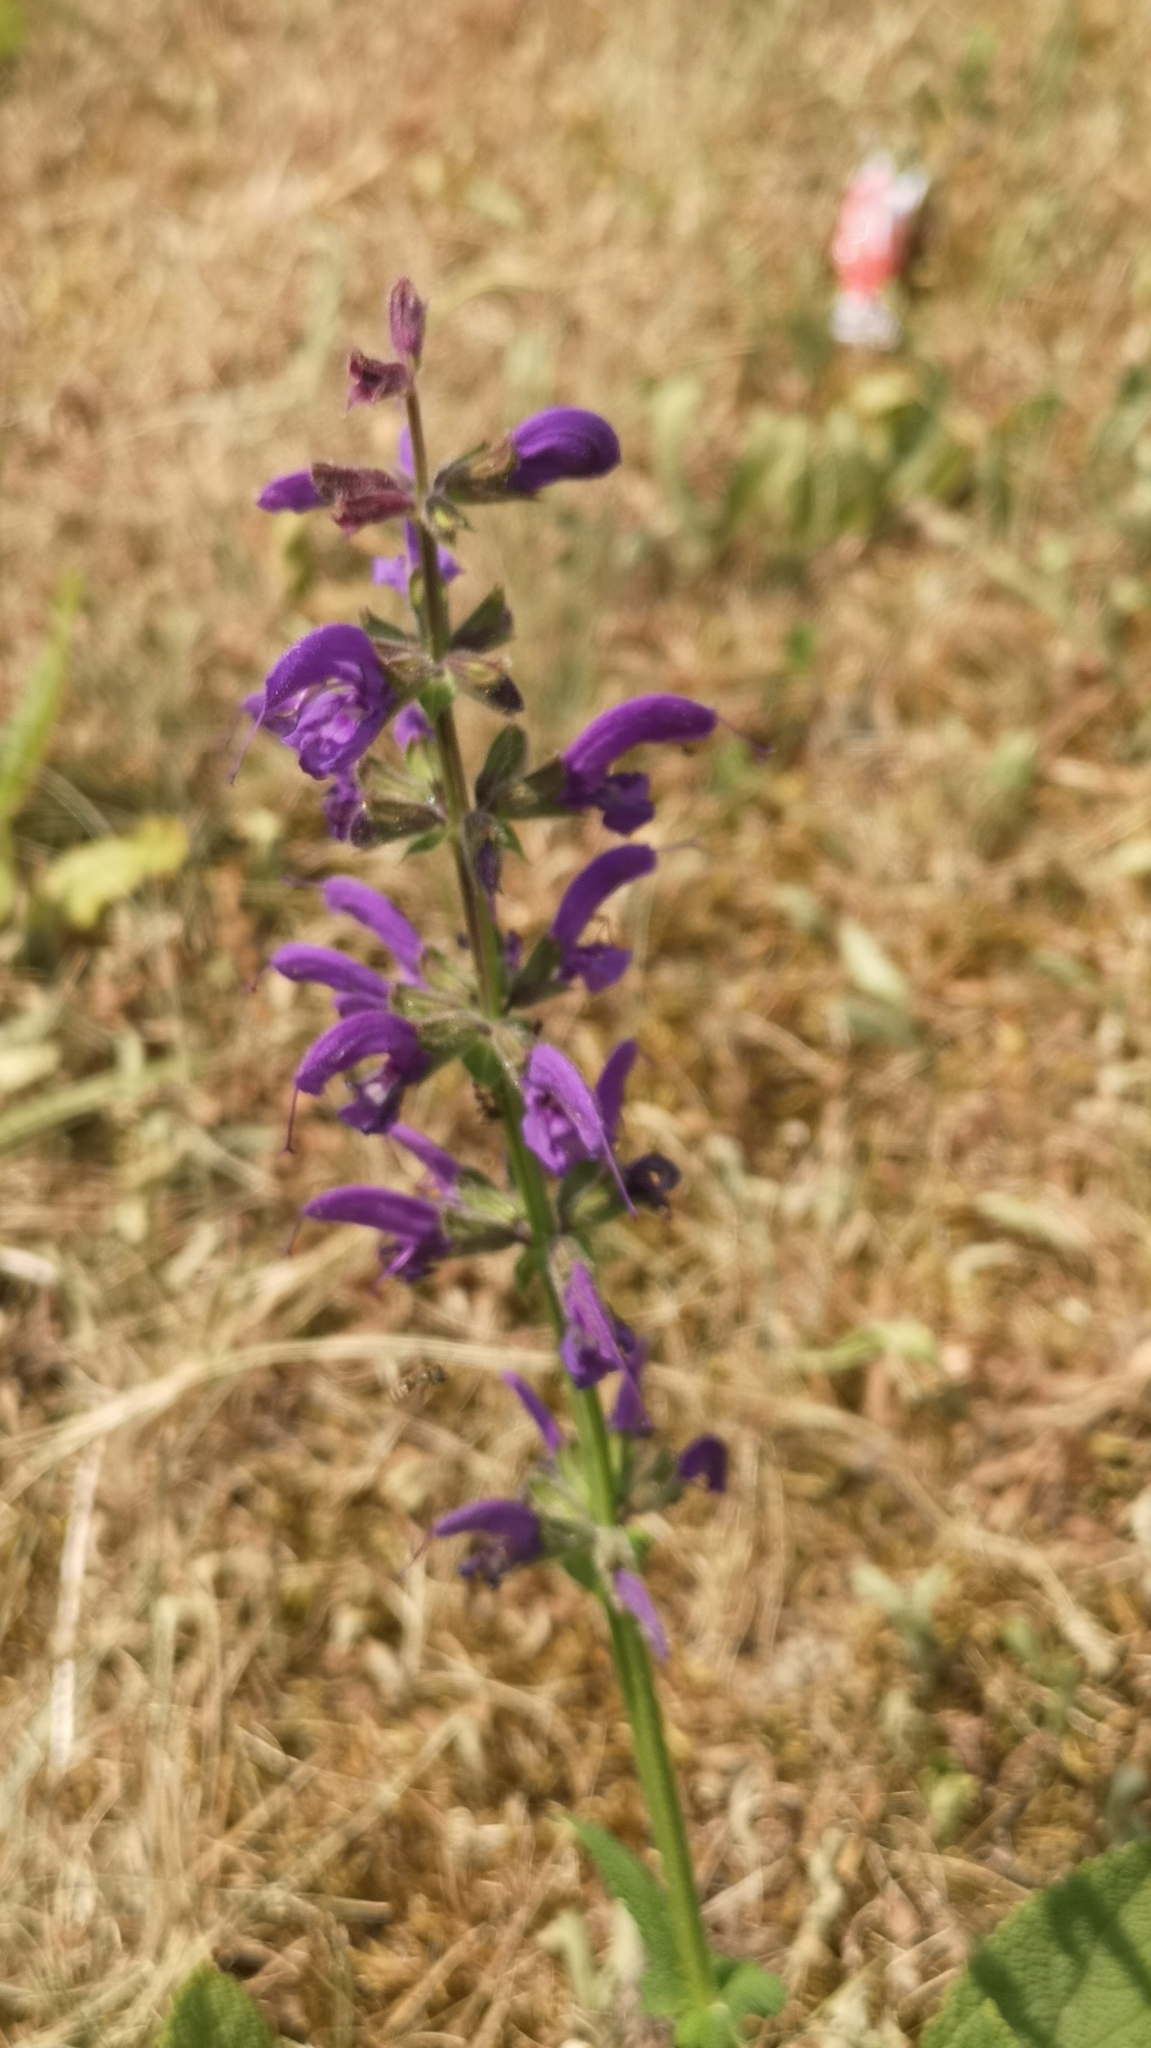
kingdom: Plantae
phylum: Tracheophyta
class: Magnoliopsida
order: Lamiales
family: Lamiaceae
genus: Salvia
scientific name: Salvia pratensis
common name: Meadow sage
